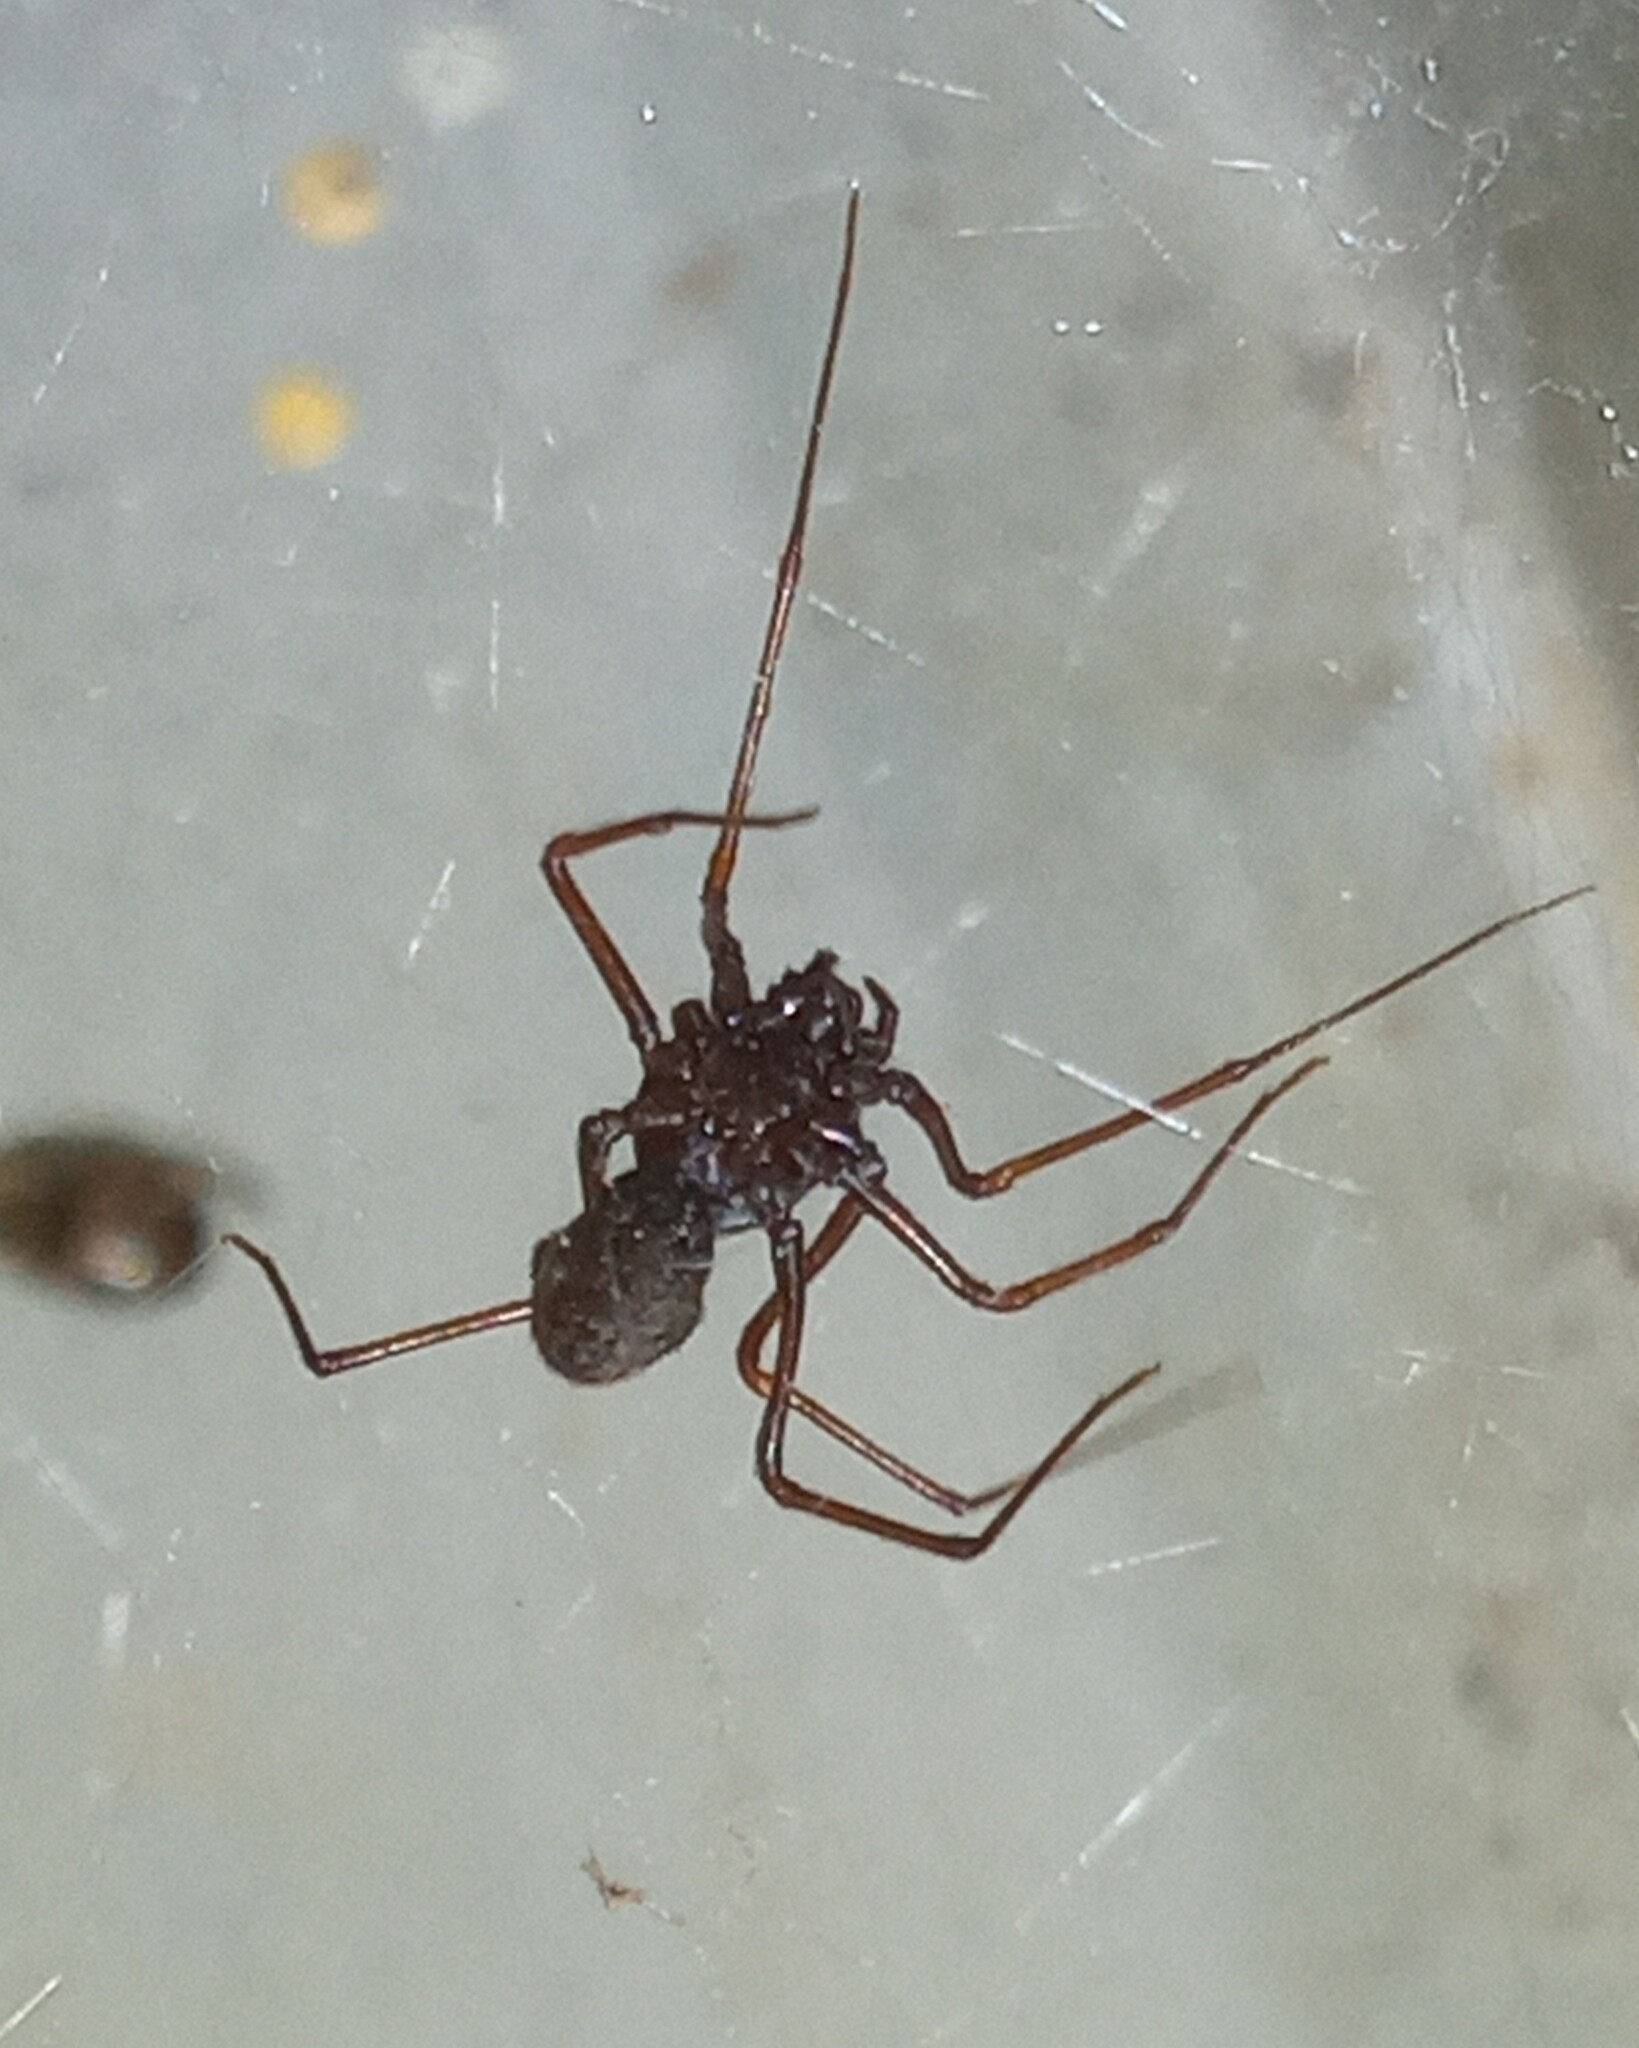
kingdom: Animalia
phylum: Arthropoda
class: Arachnida
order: Araneae
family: Scytodidae
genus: Scytodes
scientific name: Scytodes fusca
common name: Spitting spiders
